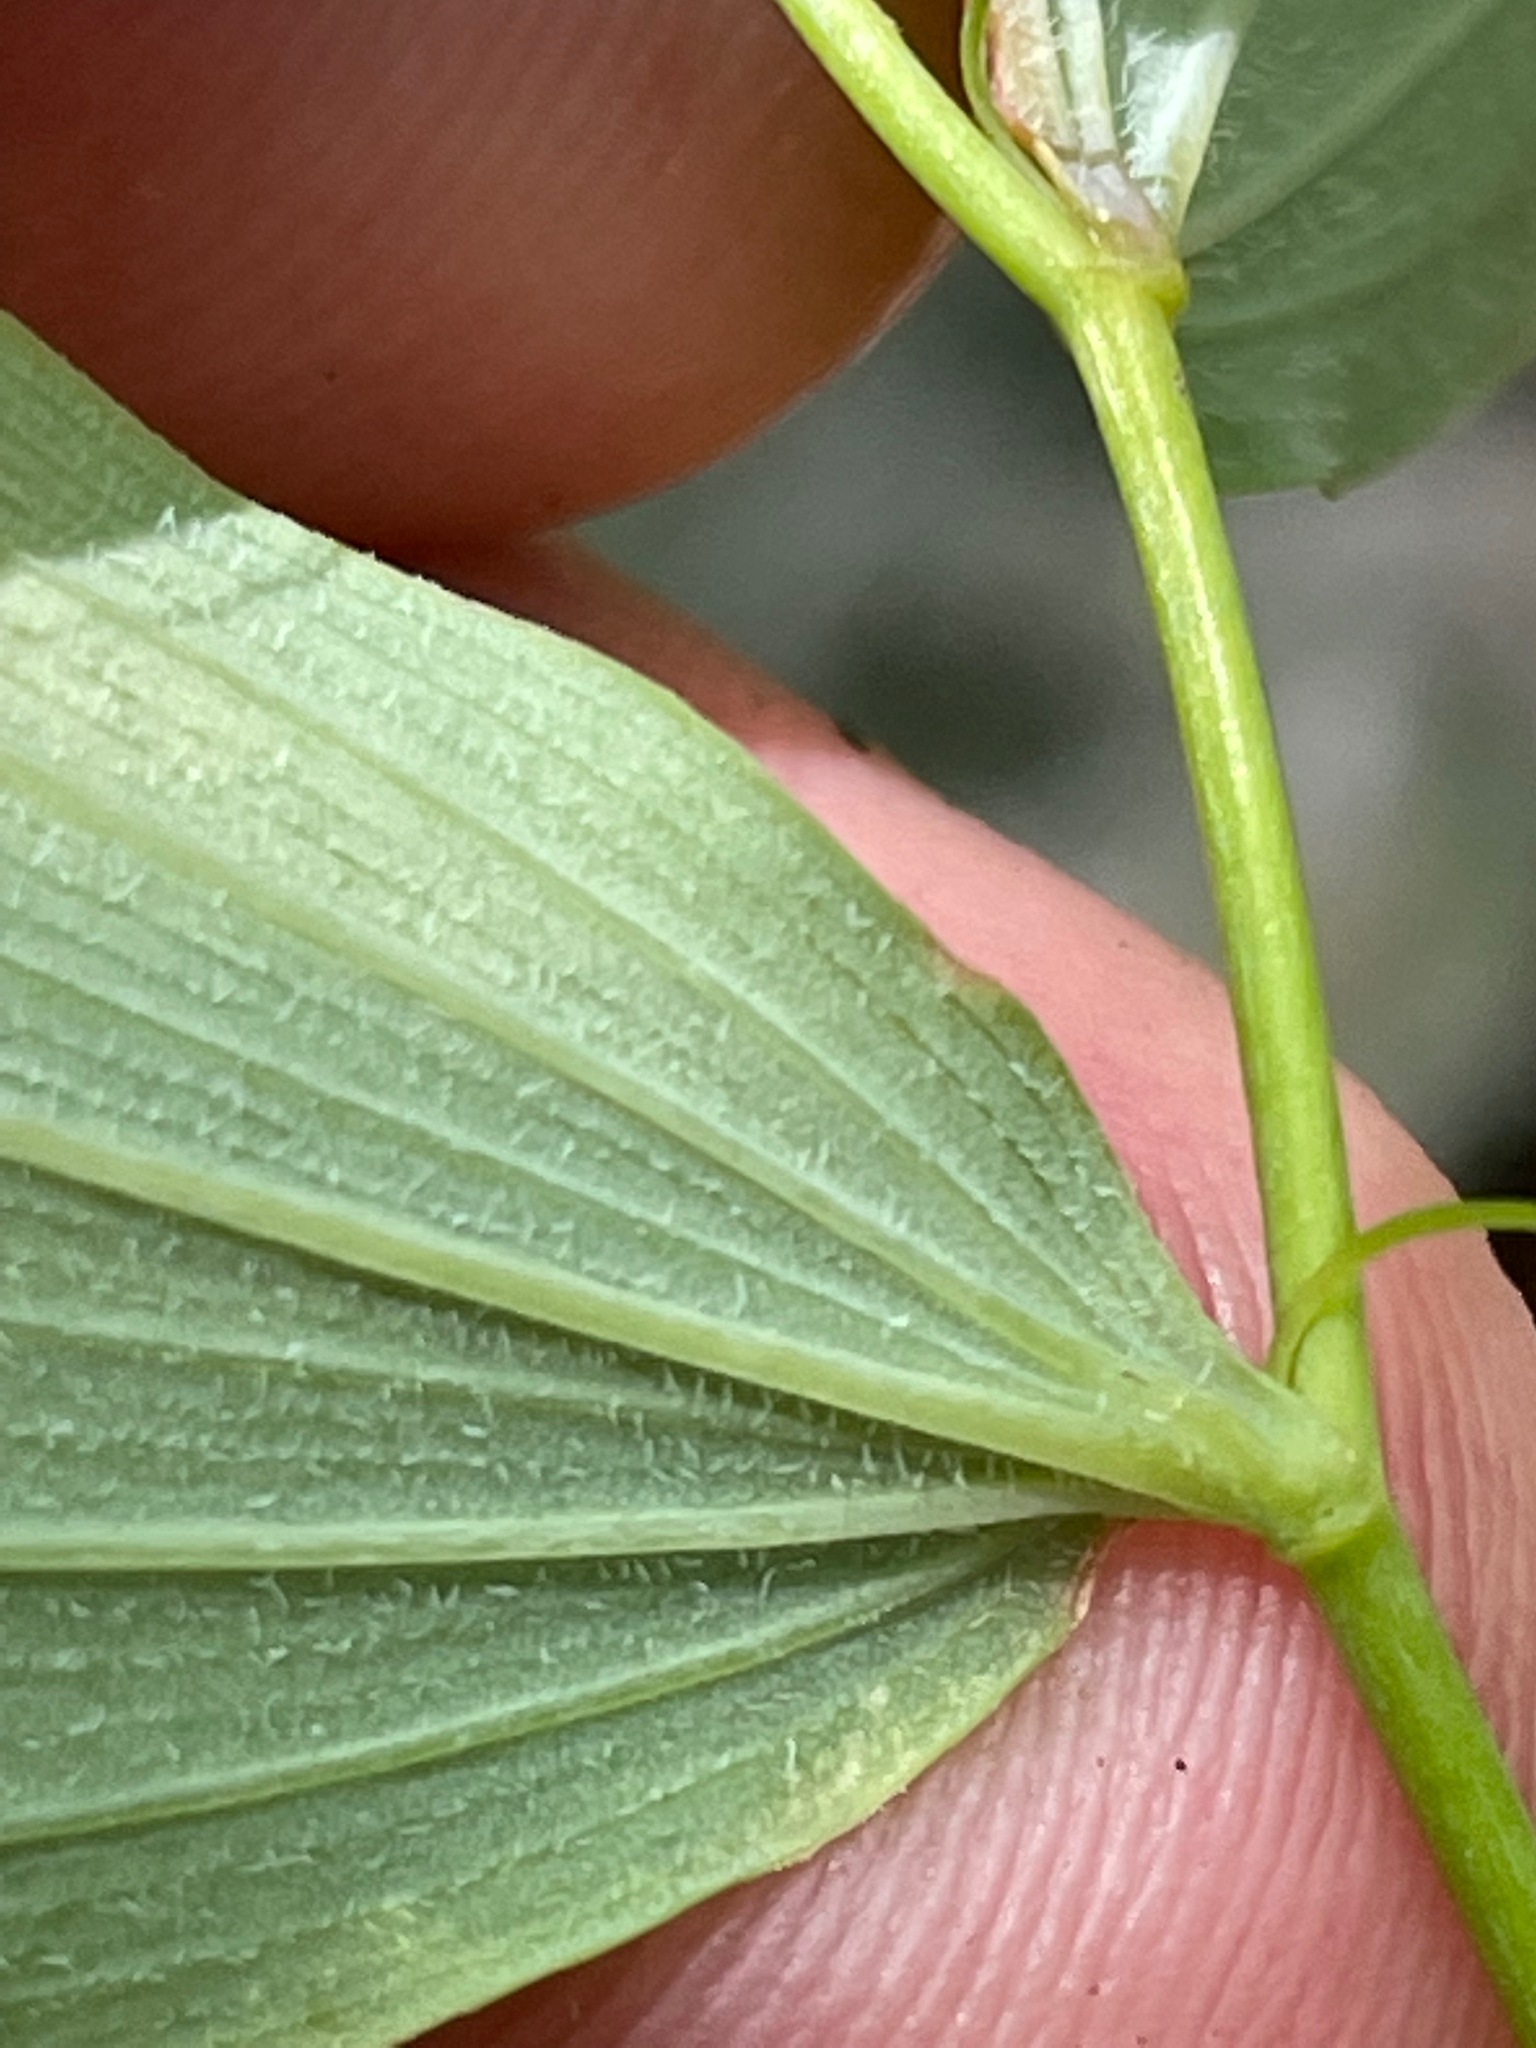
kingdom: Plantae
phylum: Tracheophyta
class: Liliopsida
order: Asparagales
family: Asparagaceae
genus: Polygonatum
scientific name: Polygonatum pubescens
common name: Downy solomon's seal
